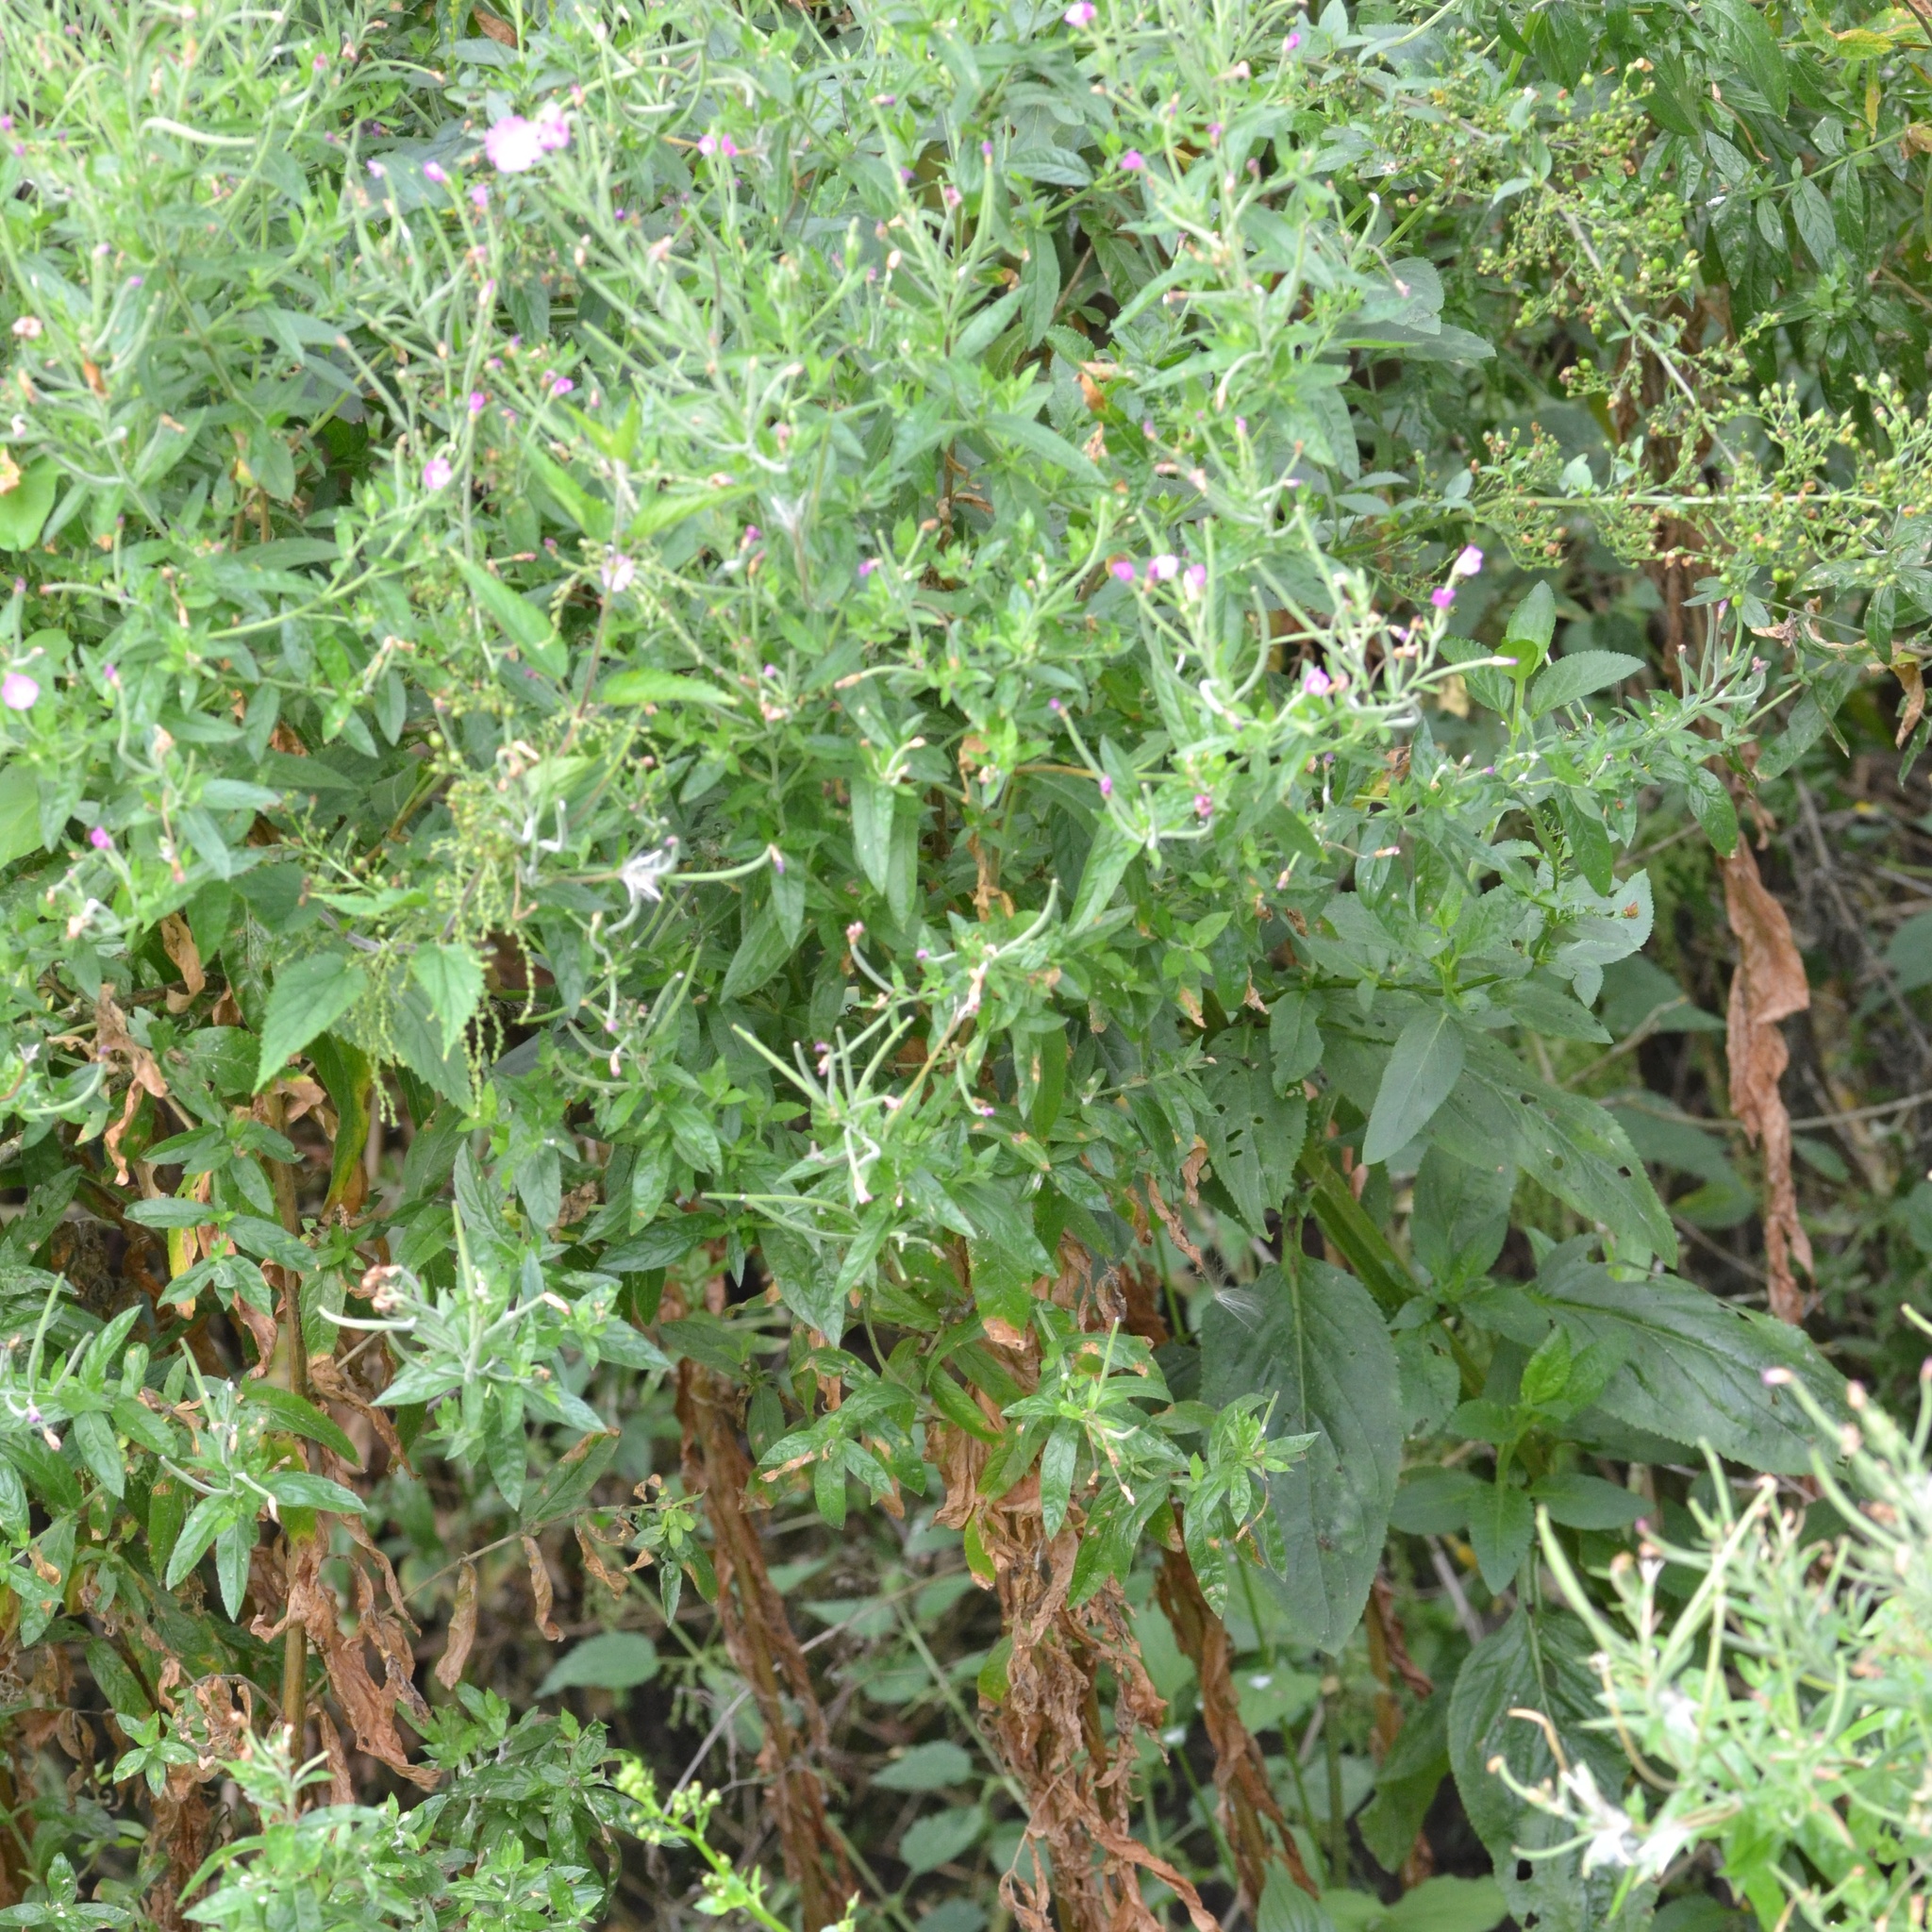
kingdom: Plantae
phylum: Tracheophyta
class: Magnoliopsida
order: Myrtales
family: Onagraceae
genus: Epilobium
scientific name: Epilobium hirsutum
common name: Great willowherb
